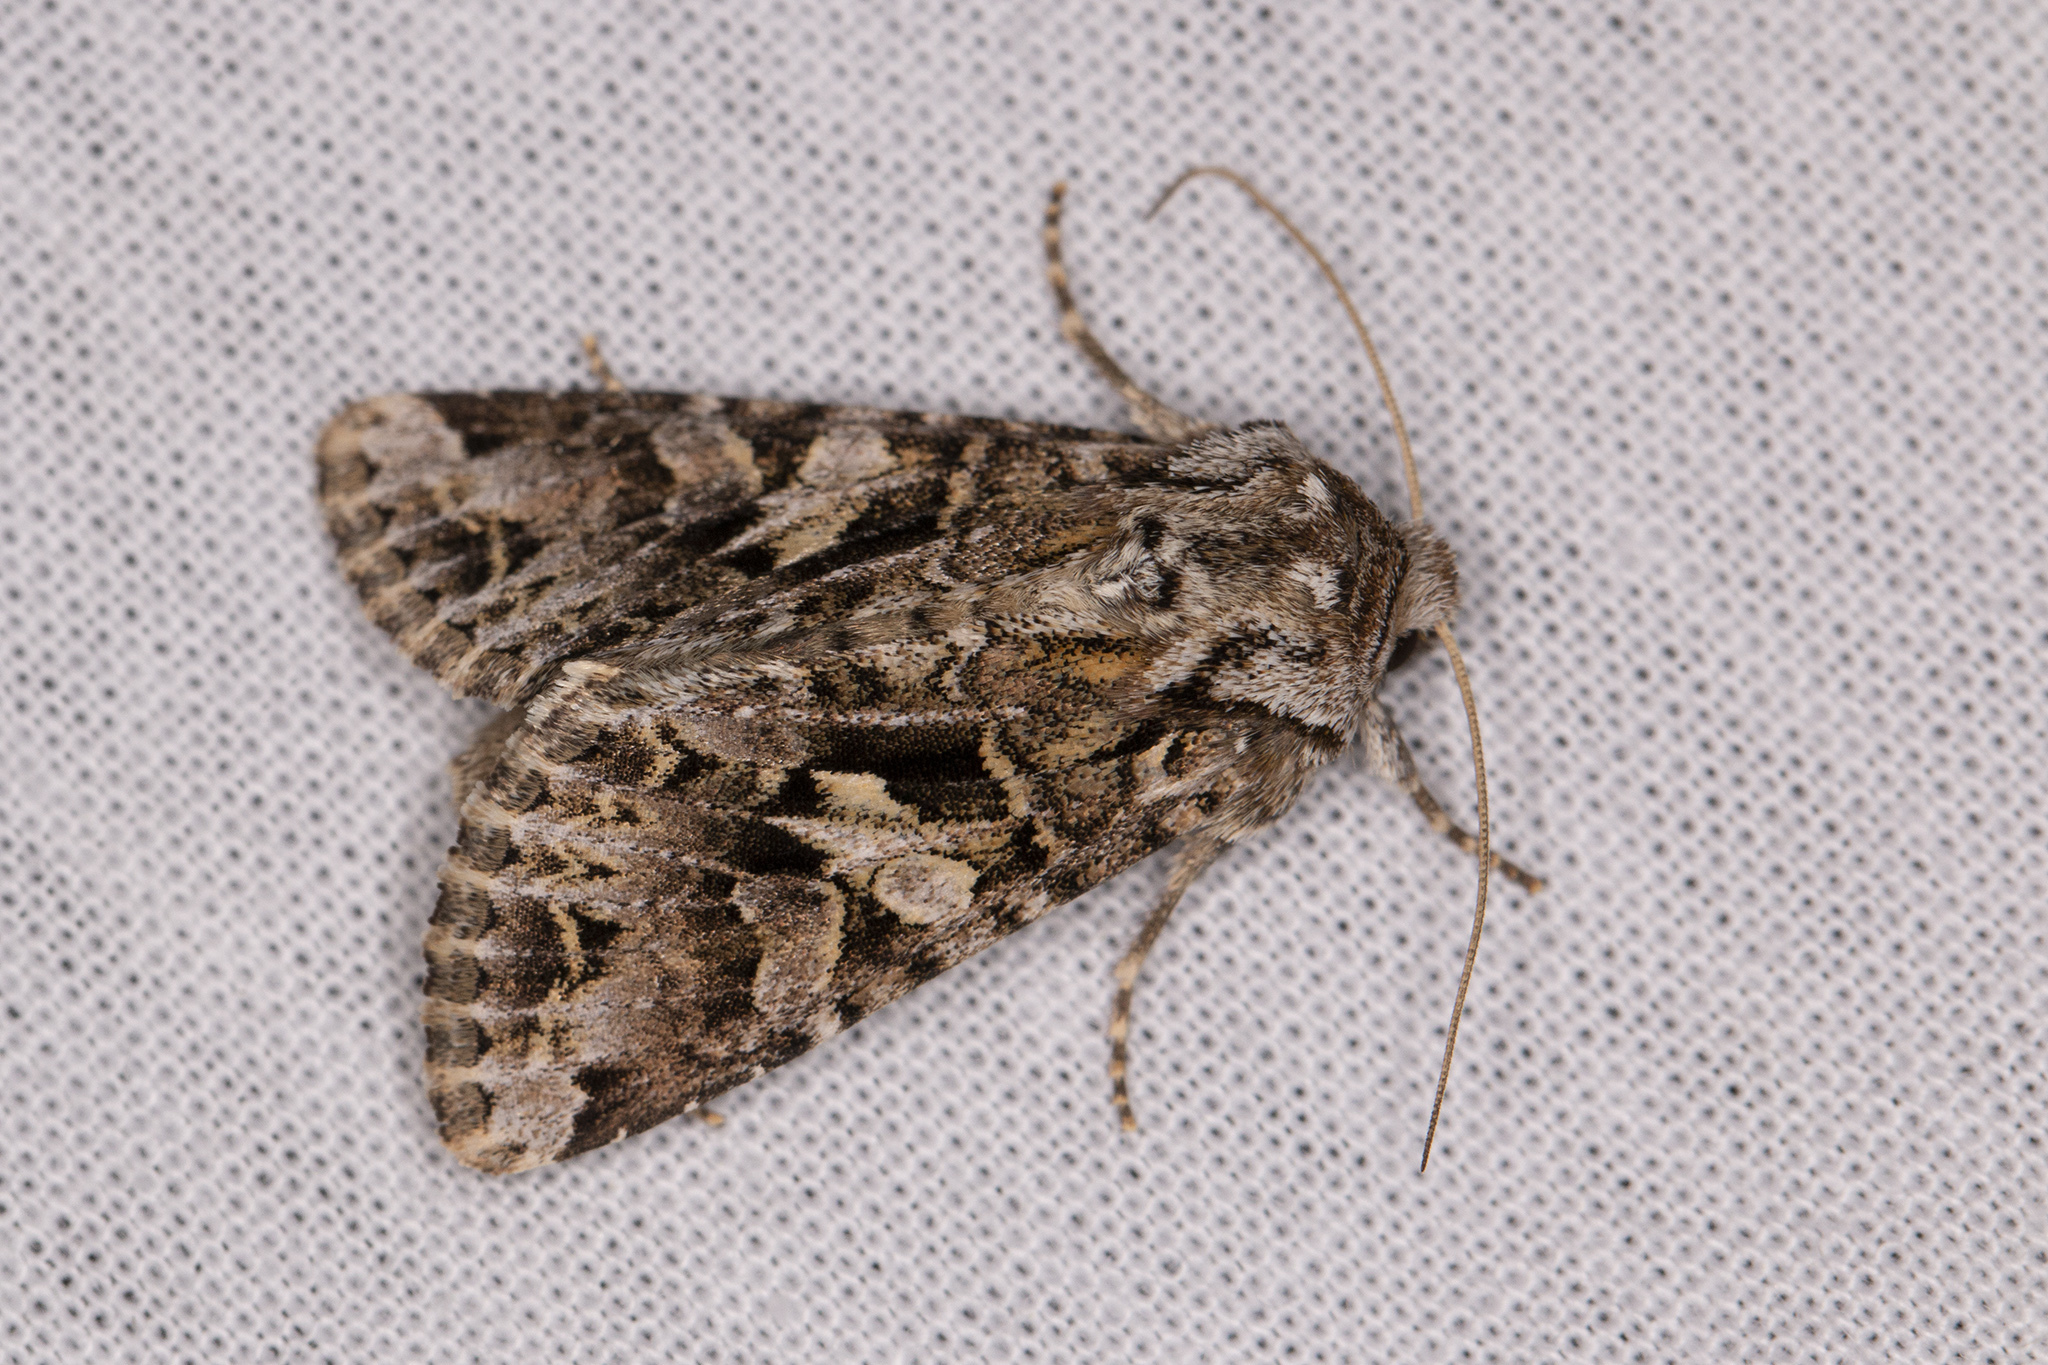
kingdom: Animalia
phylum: Arthropoda
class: Insecta
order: Lepidoptera
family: Noctuidae
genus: Hada
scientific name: Hada plebeja
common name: Shears
